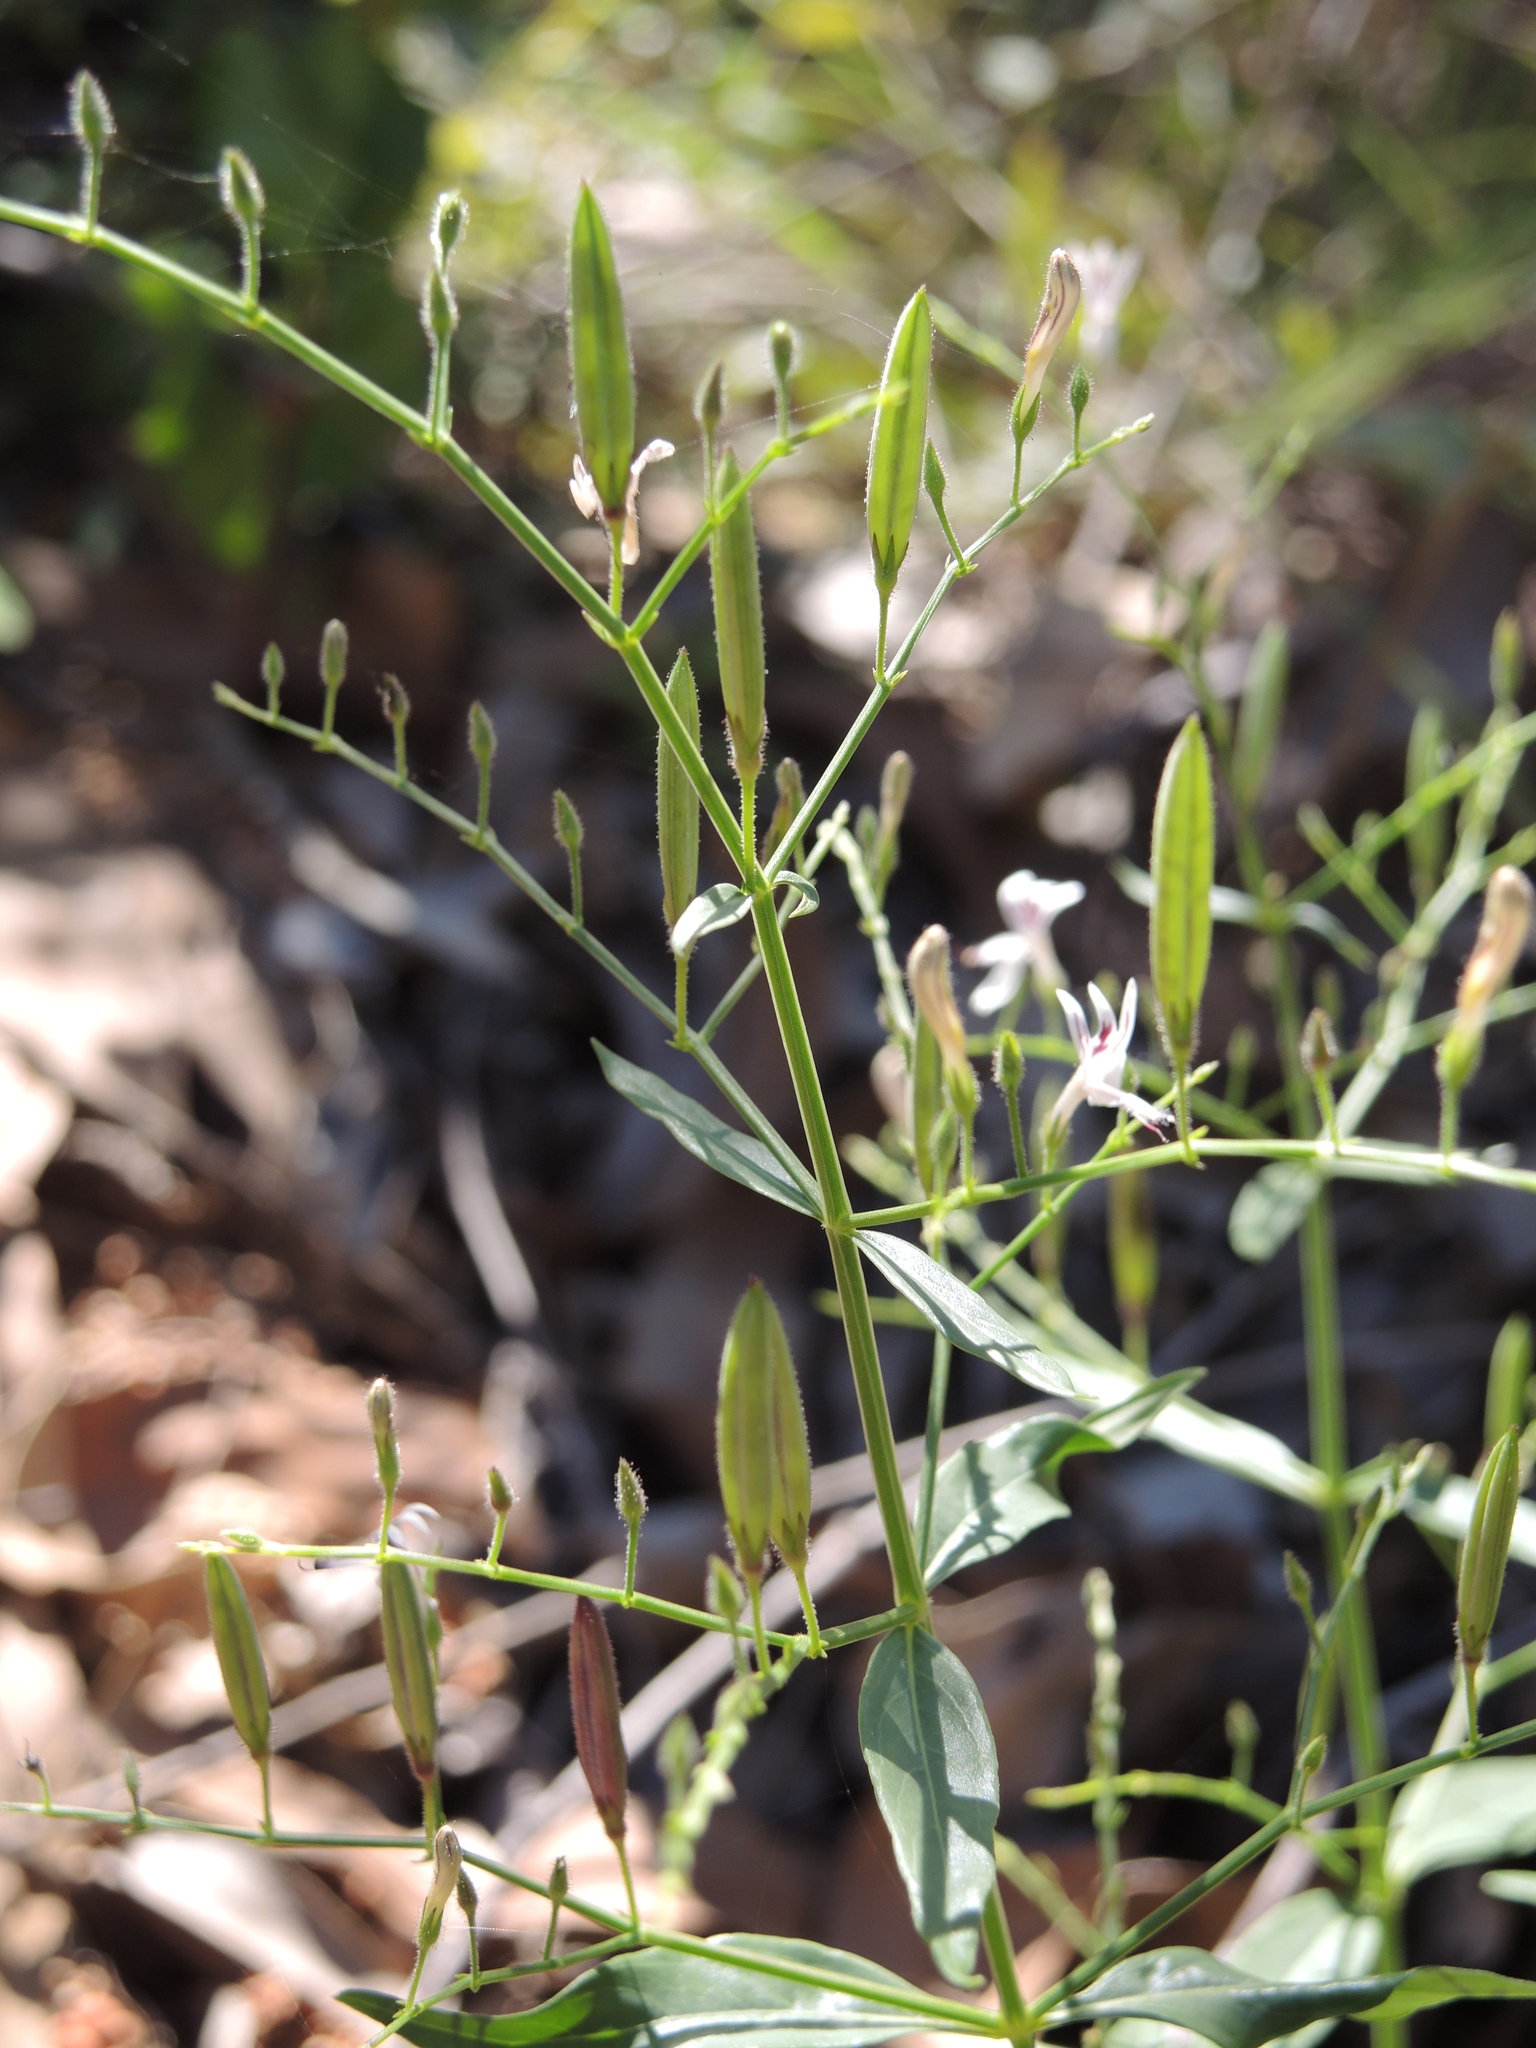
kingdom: Plantae
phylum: Tracheophyta
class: Magnoliopsida
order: Lamiales
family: Acanthaceae
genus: Andrographis
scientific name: Andrographis paniculata
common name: Green chireta
